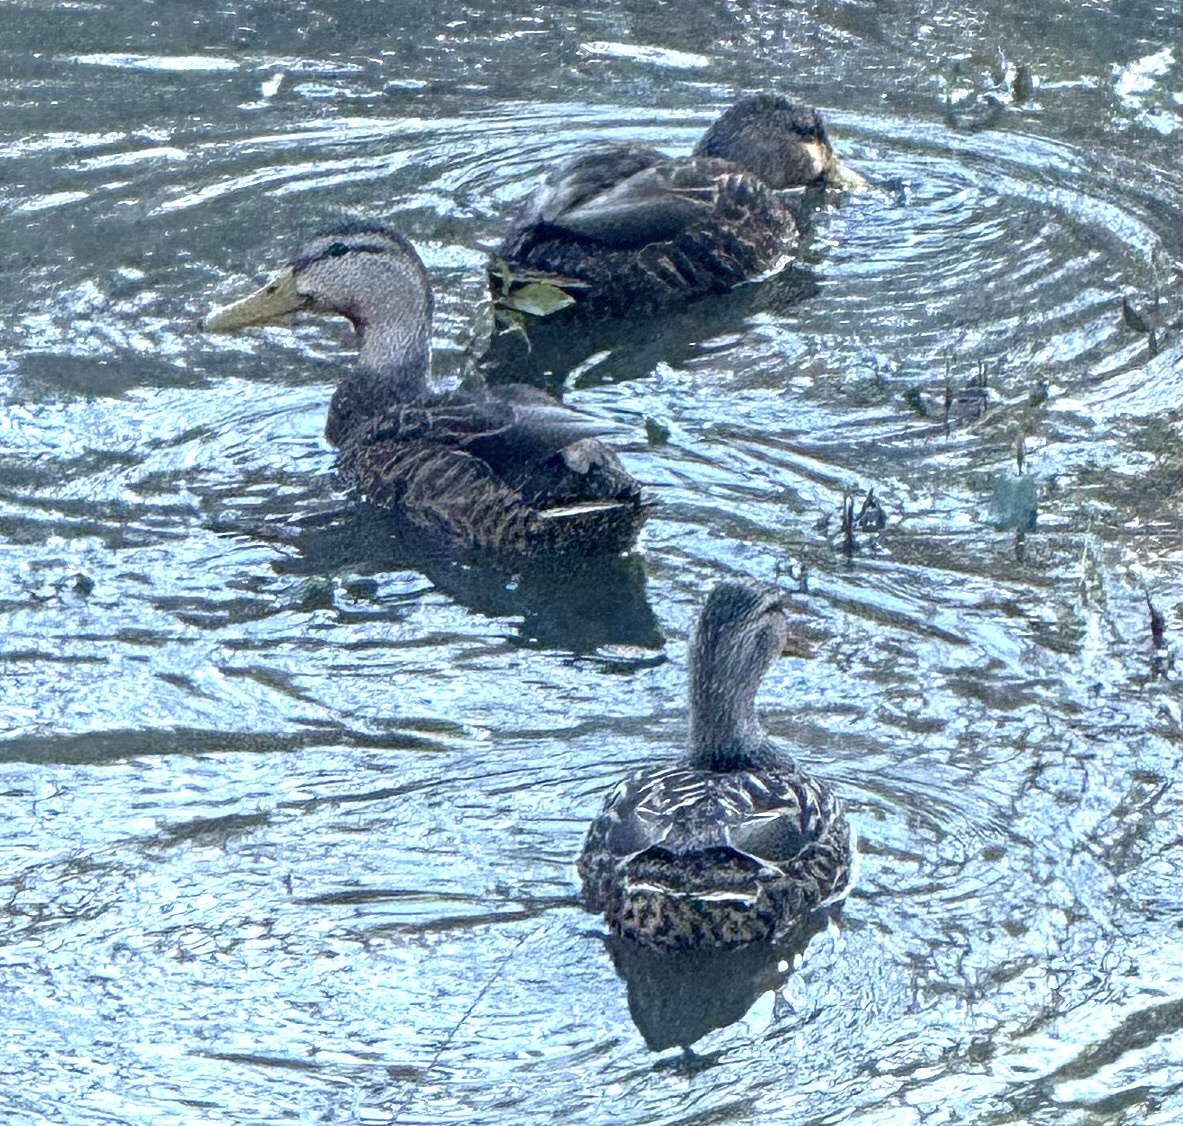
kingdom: Animalia
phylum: Chordata
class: Aves
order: Anseriformes
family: Anatidae
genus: Anas
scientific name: Anas
